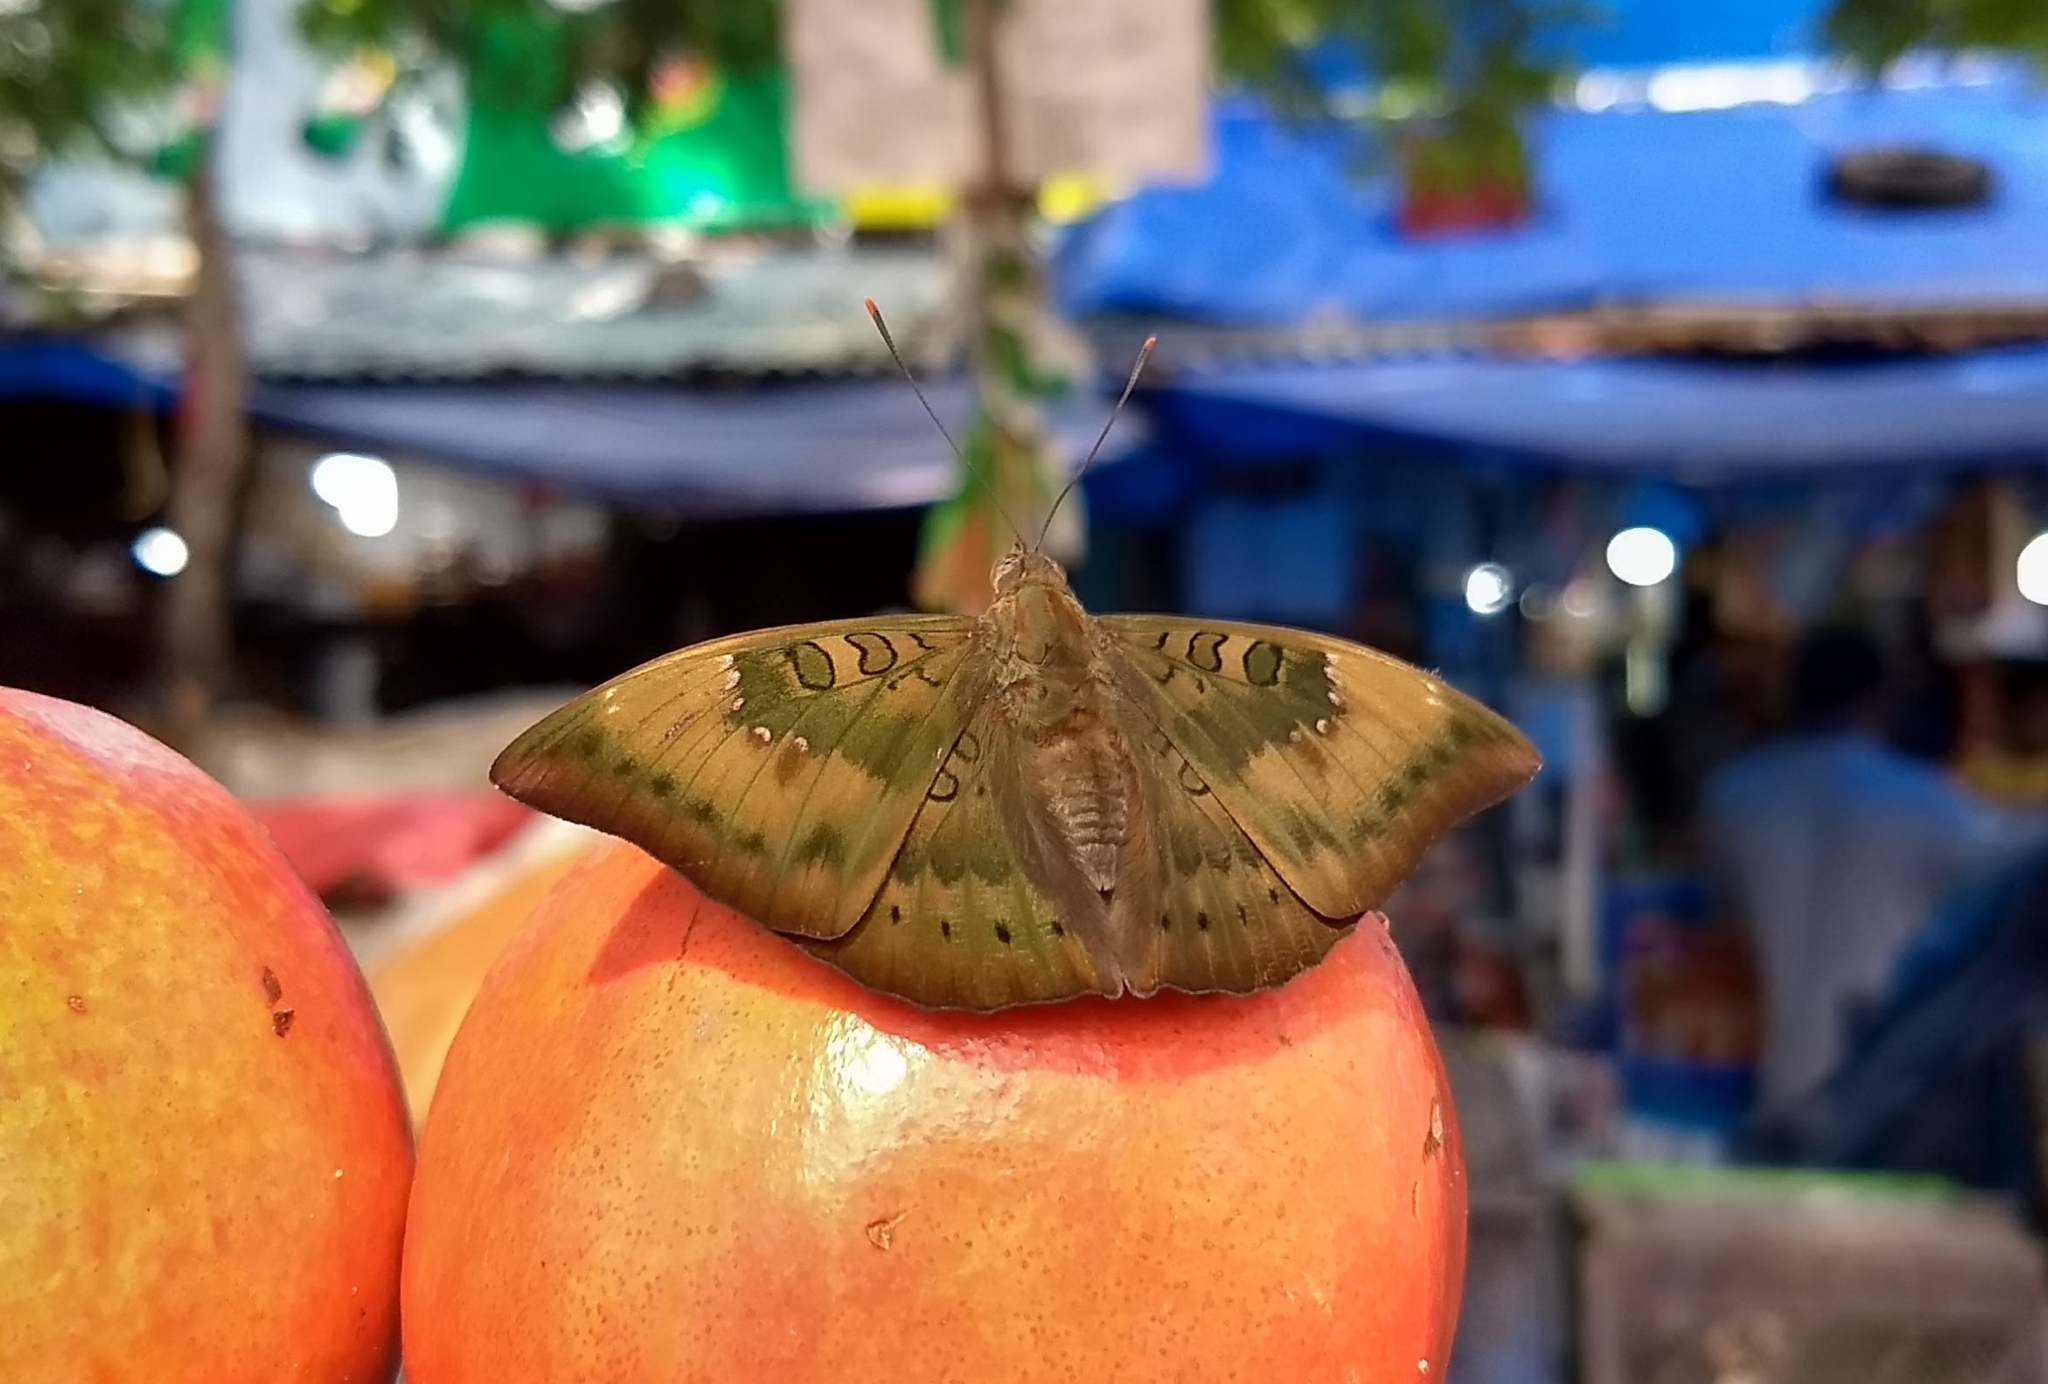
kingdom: Animalia
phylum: Arthropoda
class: Insecta
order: Lepidoptera
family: Nymphalidae
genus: Euthalia
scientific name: Euthalia aconthea
